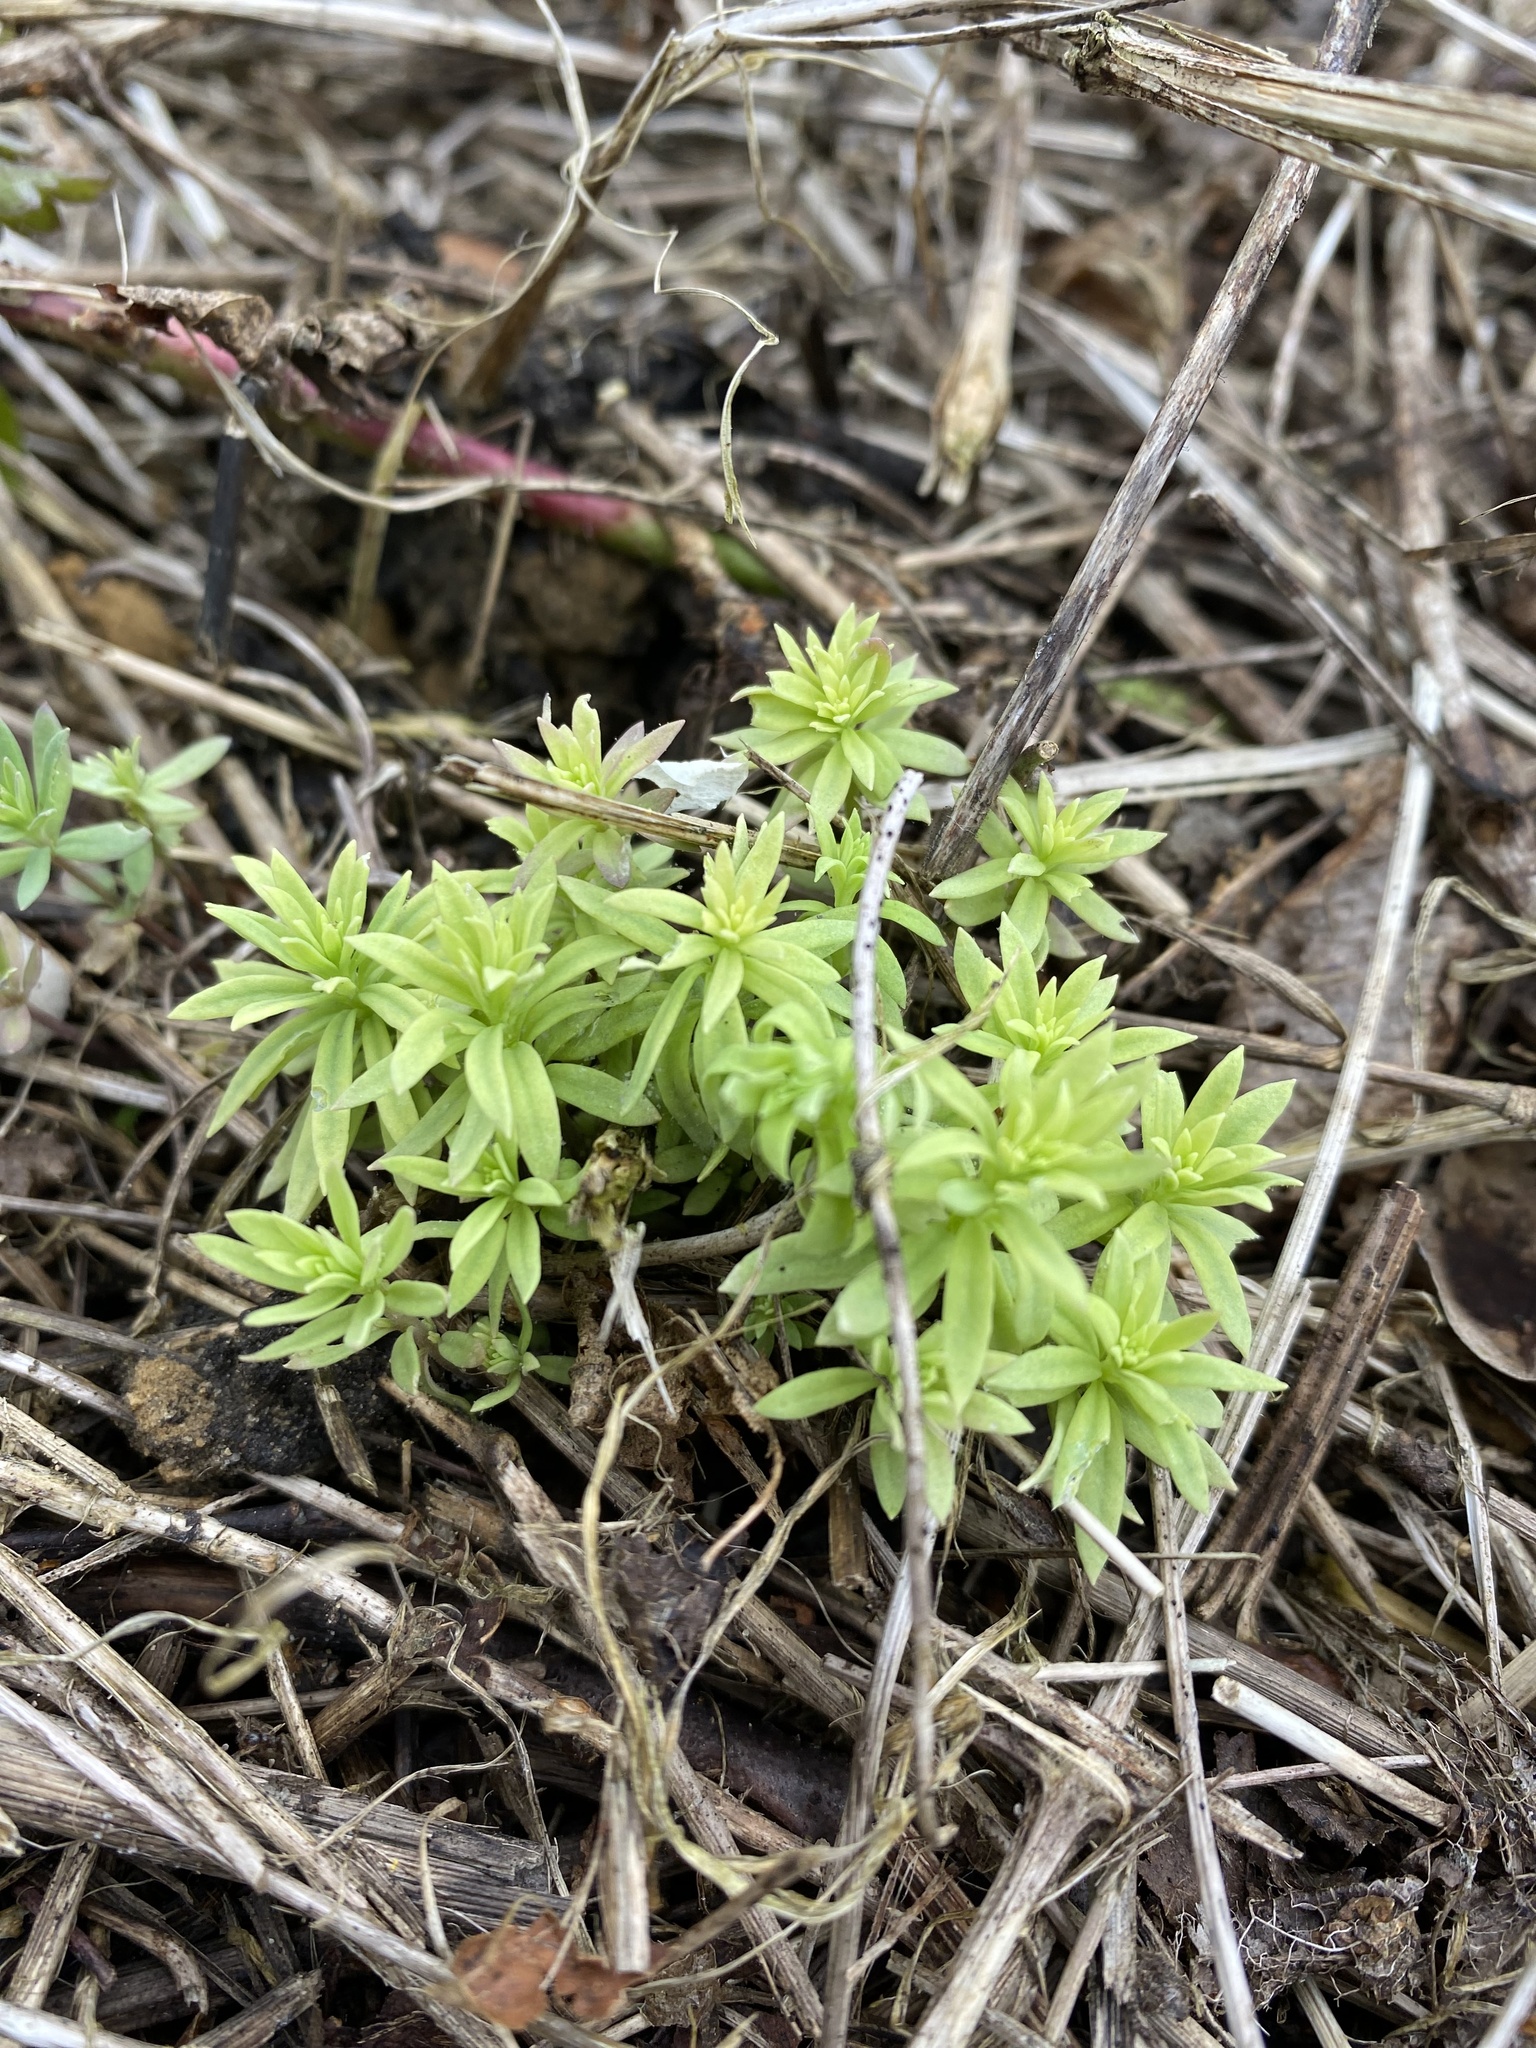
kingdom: Plantae
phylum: Tracheophyta
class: Magnoliopsida
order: Lamiales
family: Plantaginaceae
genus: Linaria
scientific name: Linaria vulgaris
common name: Butter and eggs
